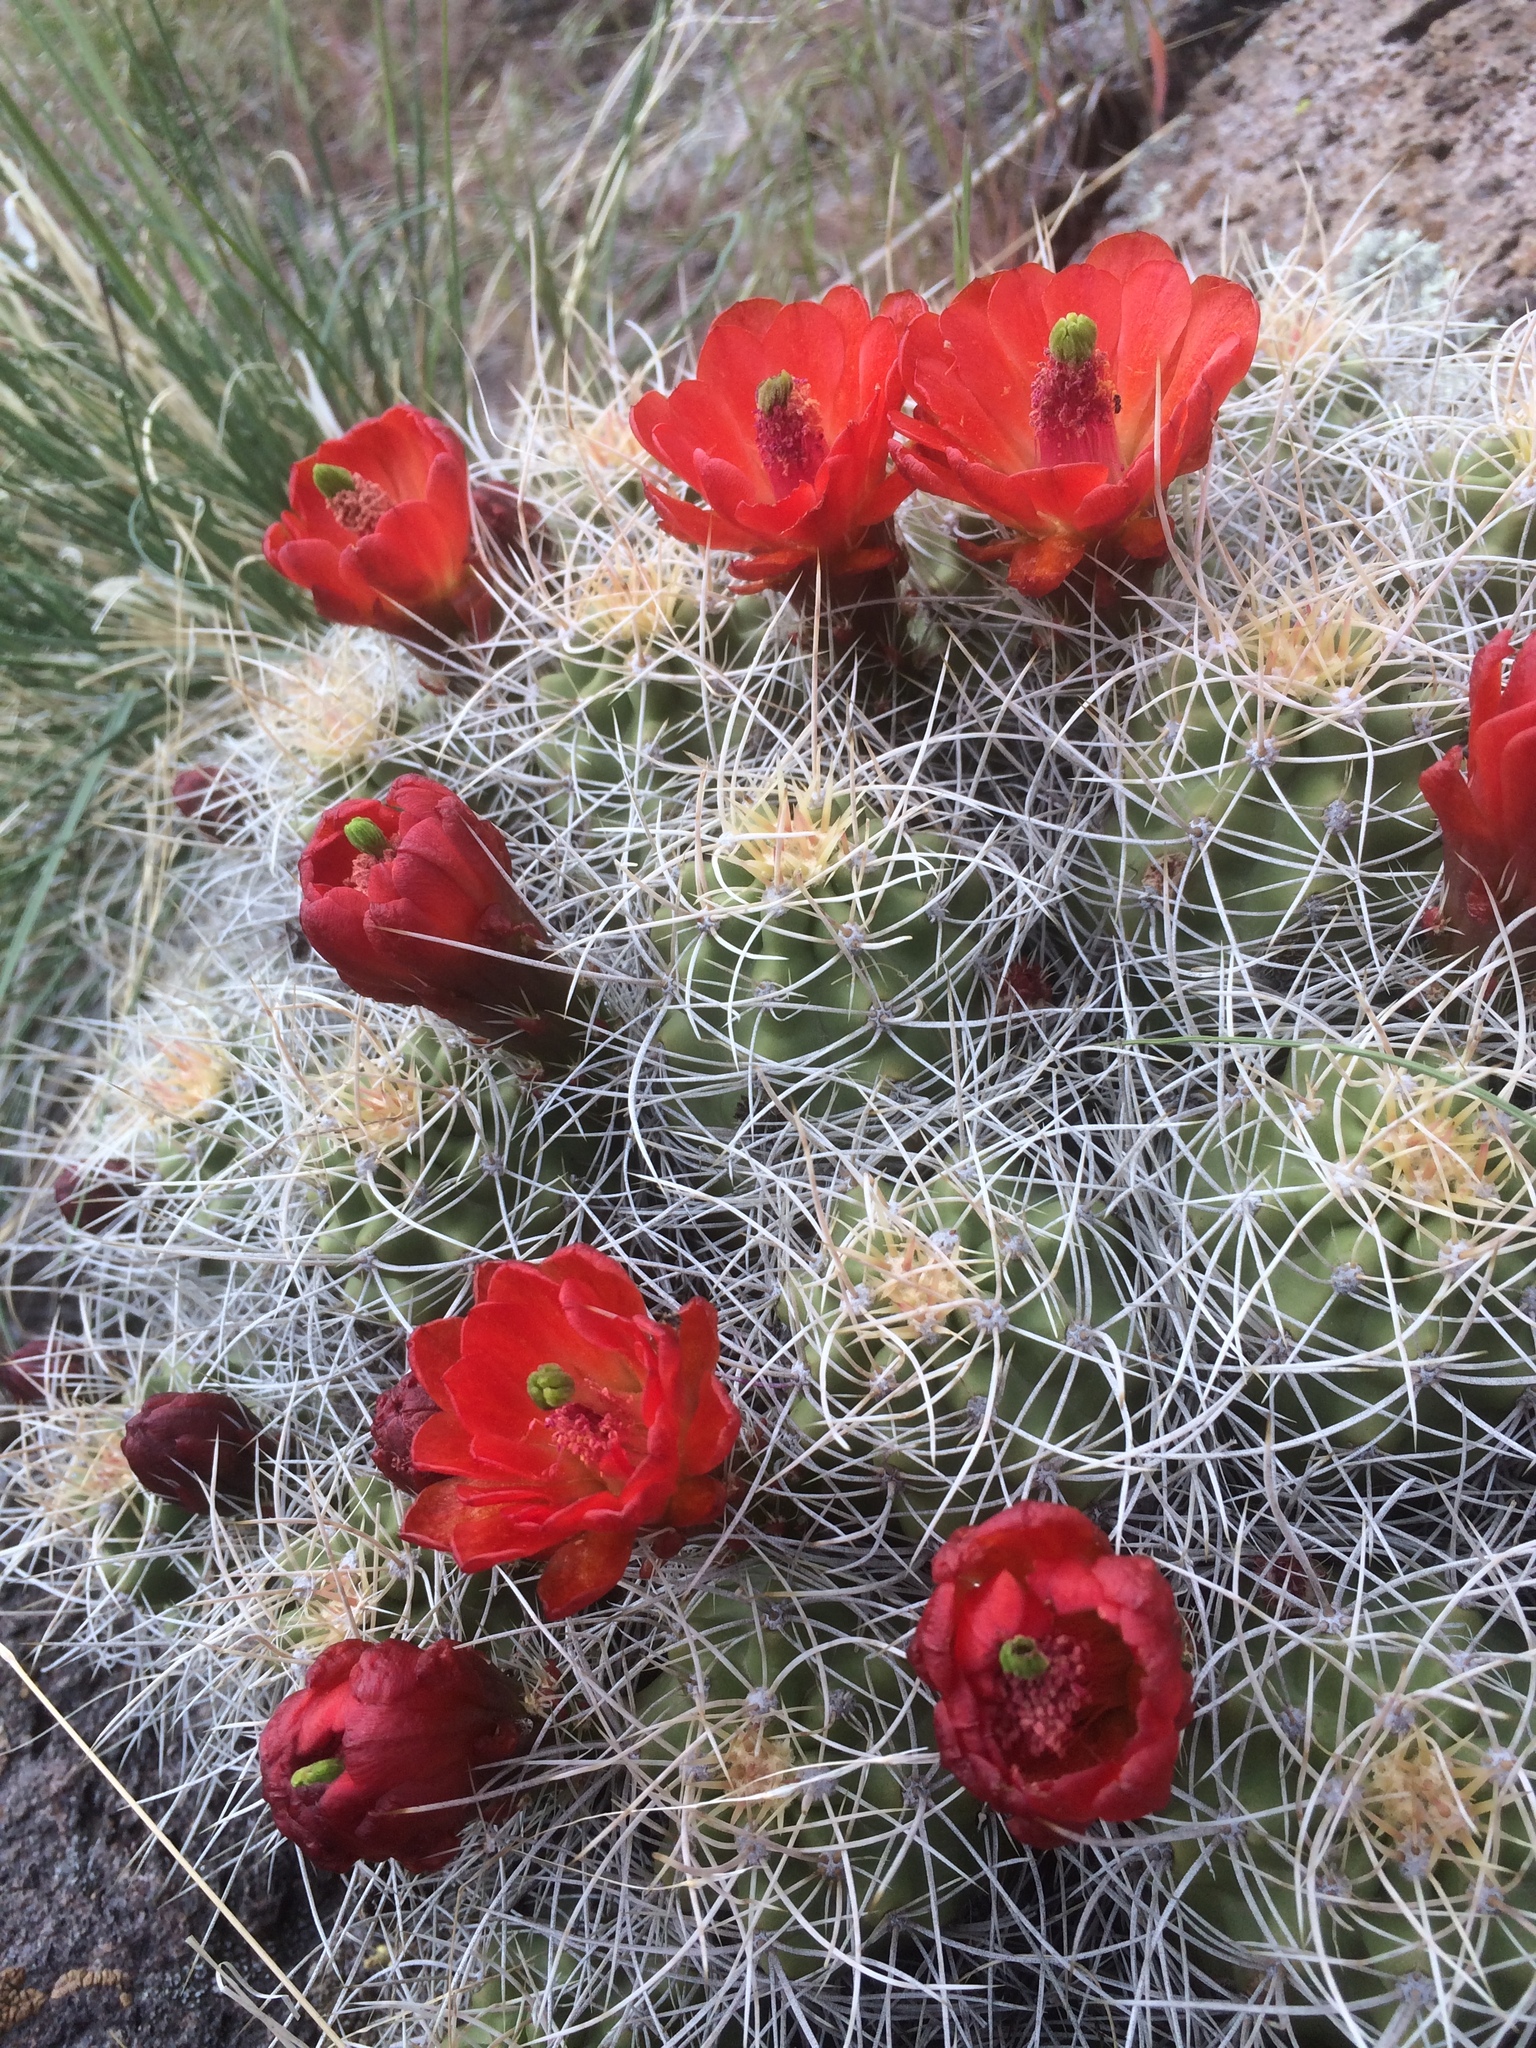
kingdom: Plantae
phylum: Tracheophyta
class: Magnoliopsida
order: Caryophyllales
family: Cactaceae
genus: Echinocereus
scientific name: Echinocereus triglochidiatus
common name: Claretcup hedgehog
